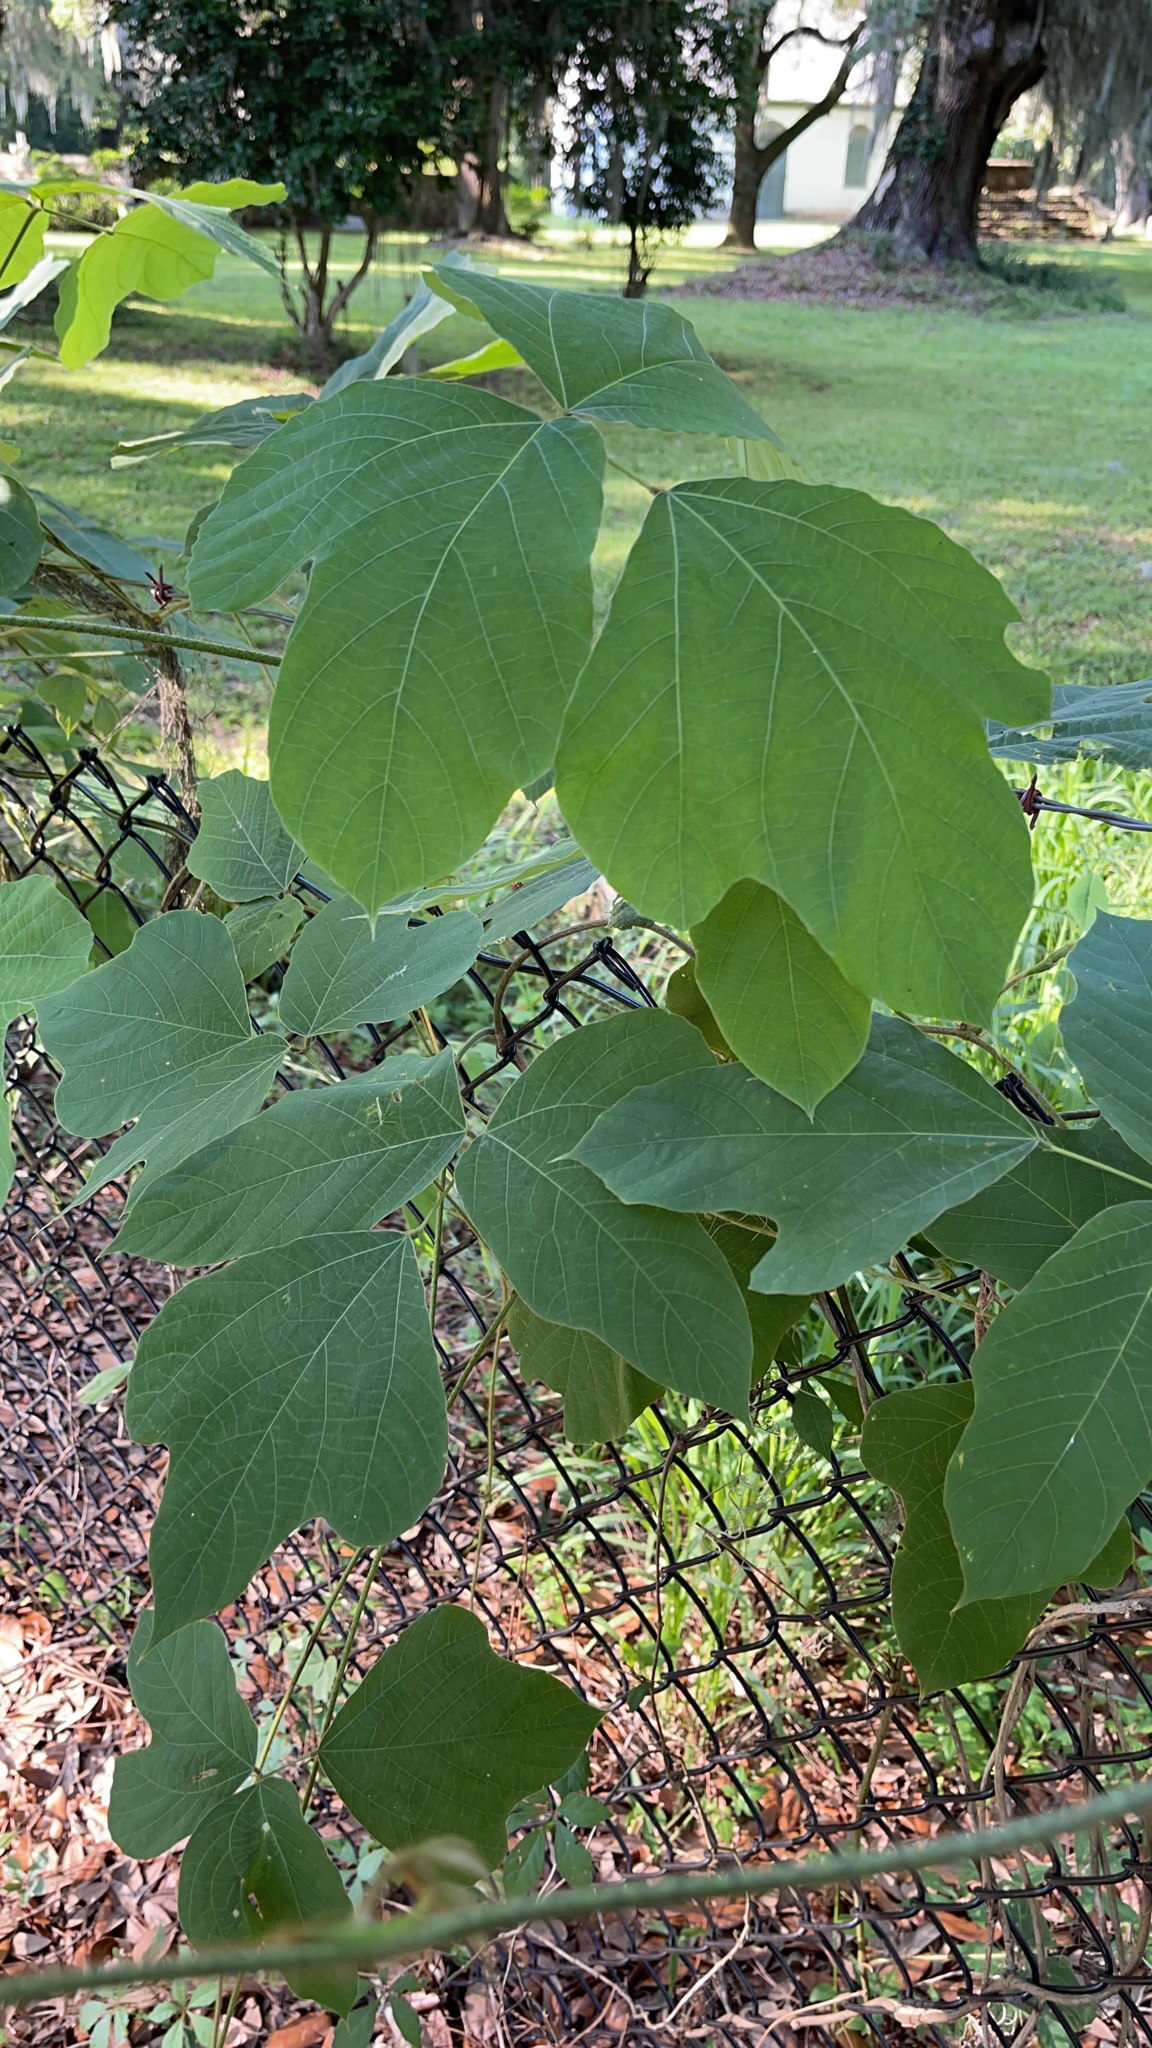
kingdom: Plantae
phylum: Tracheophyta
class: Magnoliopsida
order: Fabales
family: Fabaceae
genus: Pueraria
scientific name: Pueraria montana
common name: Kudzu
